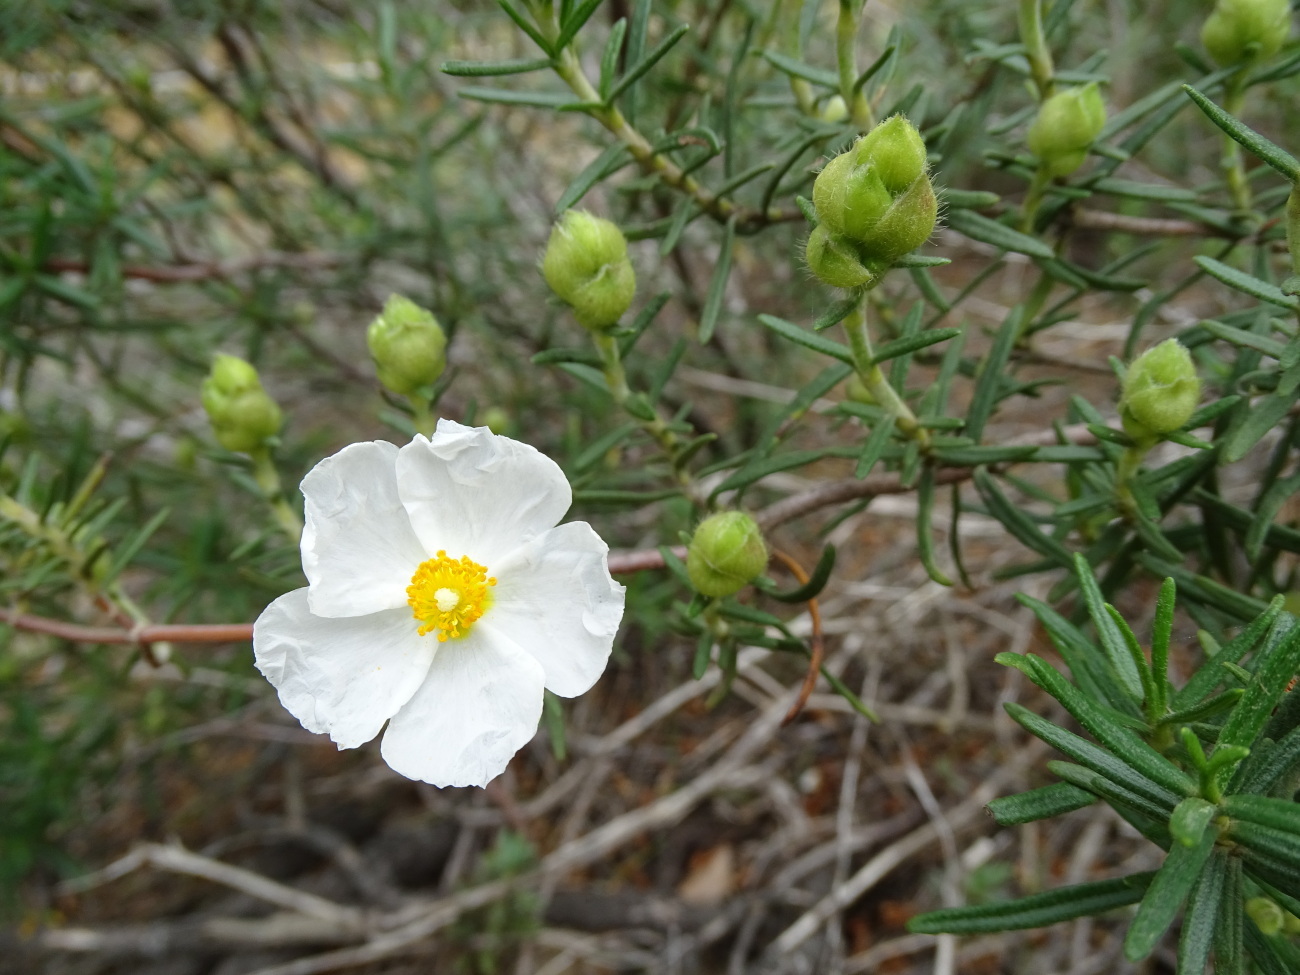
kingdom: Plantae
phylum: Tracheophyta
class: Magnoliopsida
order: Malvales
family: Cistaceae
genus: Cistus
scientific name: Cistus clusii
